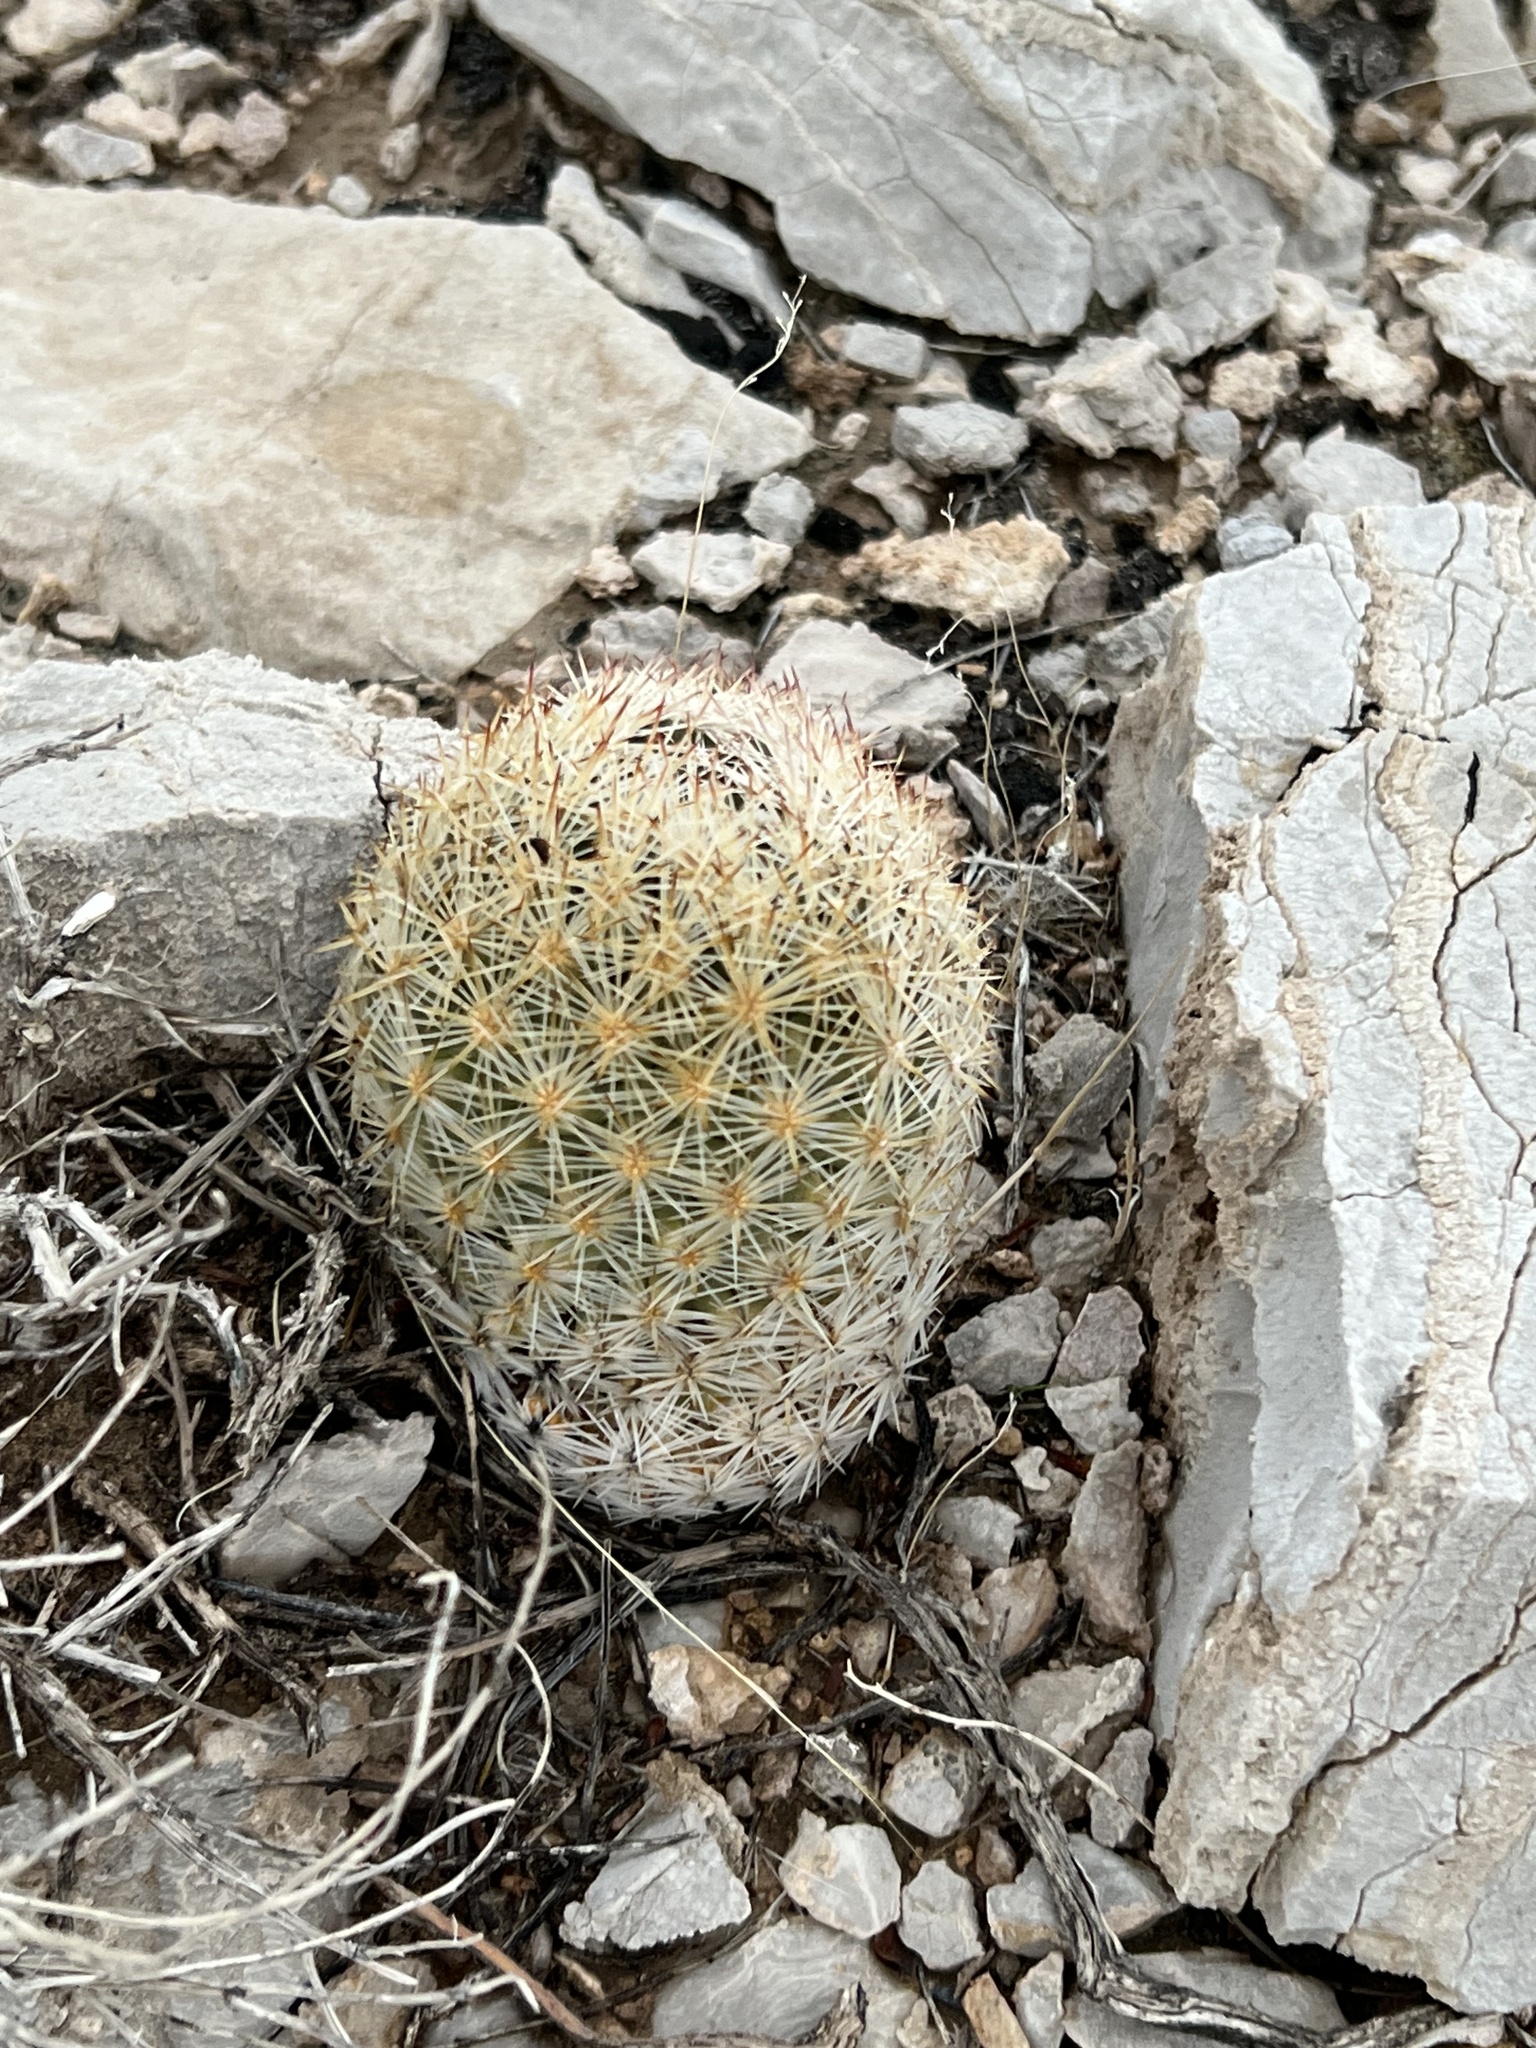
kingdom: Plantae
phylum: Tracheophyta
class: Magnoliopsida
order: Caryophyllales
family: Cactaceae
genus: Pelecyphora
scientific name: Pelecyphora dasyacantha
